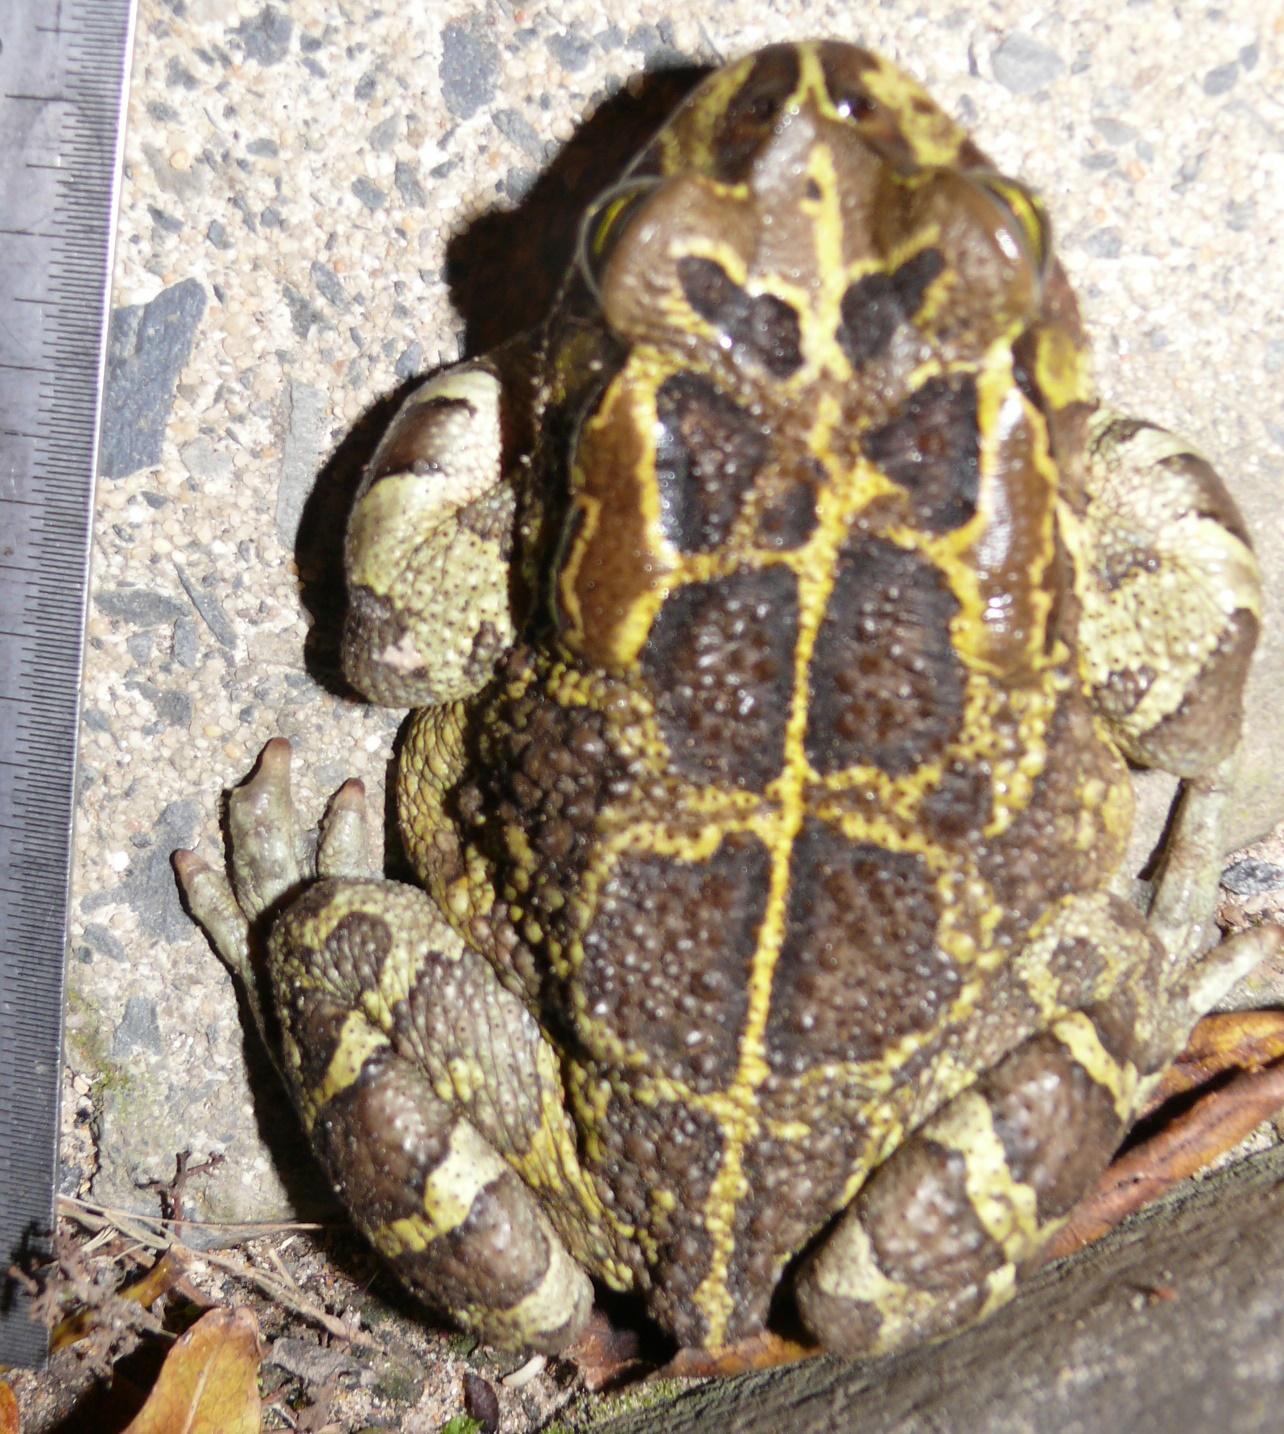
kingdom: Animalia
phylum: Chordata
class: Amphibia
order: Anura
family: Bufonidae
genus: Sclerophrys
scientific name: Sclerophrys pantherina
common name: Panther toad
